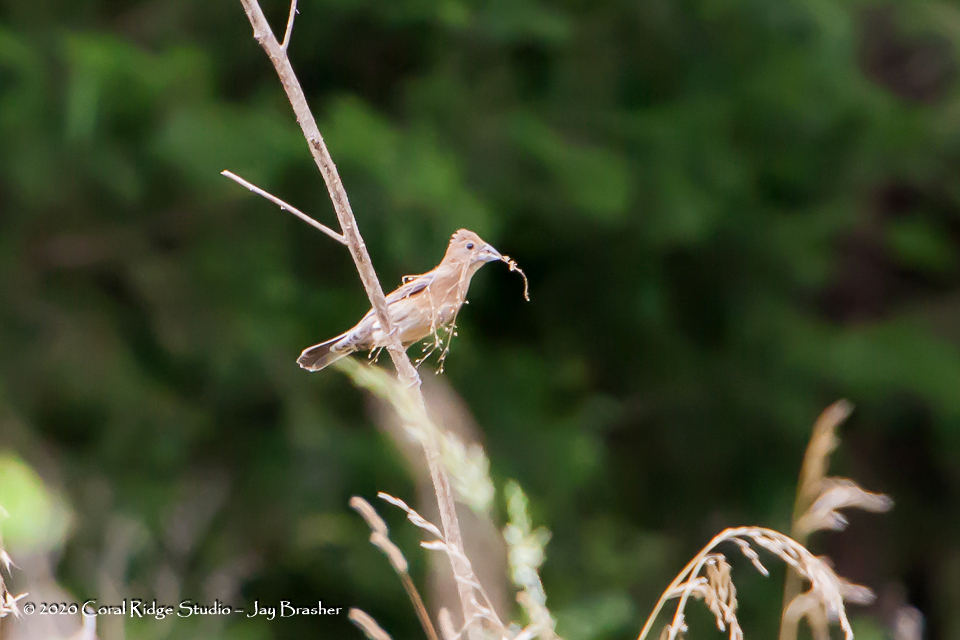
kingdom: Animalia
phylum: Chordata
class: Aves
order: Passeriformes
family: Cardinalidae
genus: Passerina
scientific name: Passerina caerulea
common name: Blue grosbeak
